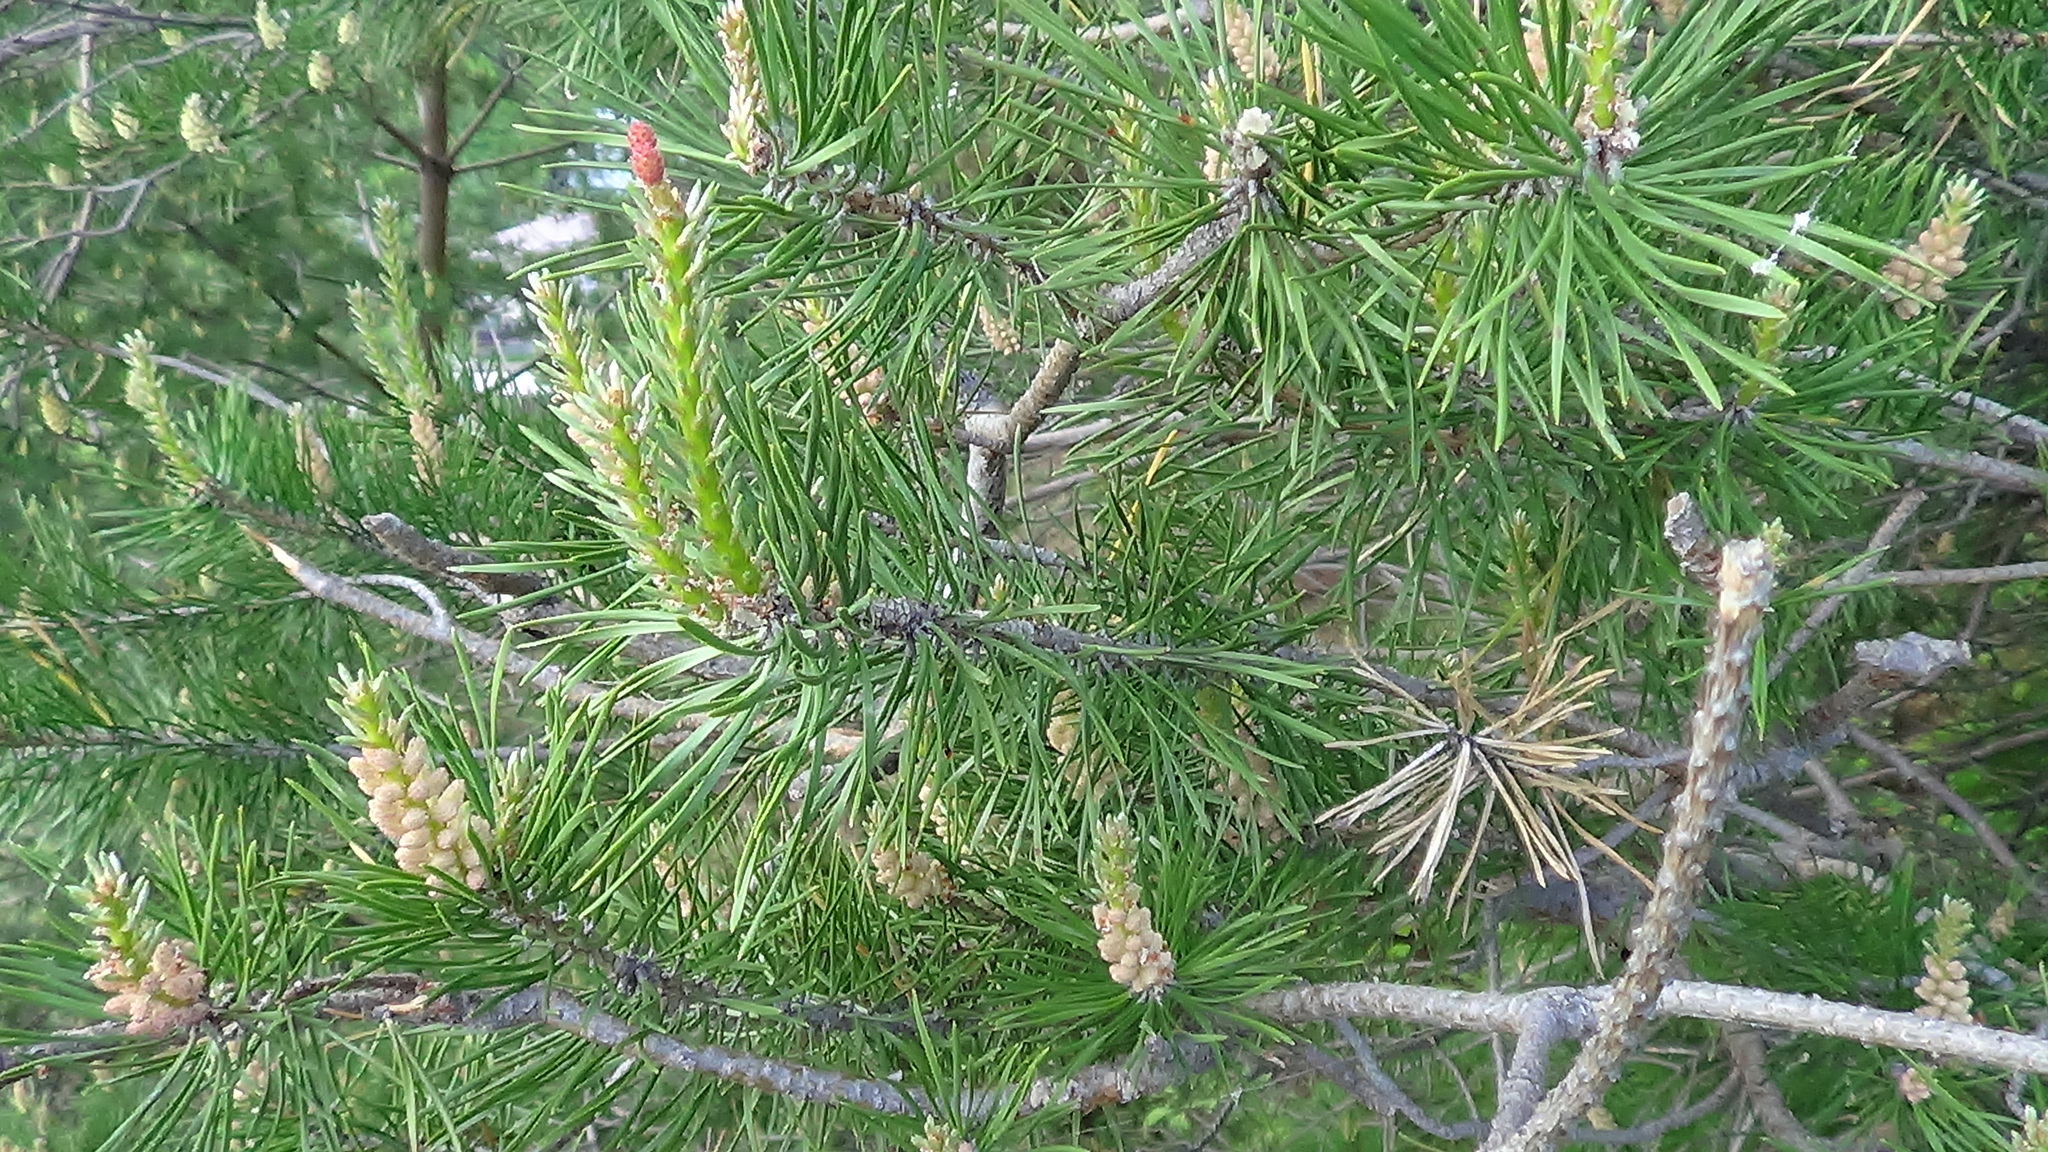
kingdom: Plantae
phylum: Tracheophyta
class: Pinopsida
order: Pinales
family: Pinaceae
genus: Pinus
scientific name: Pinus sylvestris
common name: Scots pine
